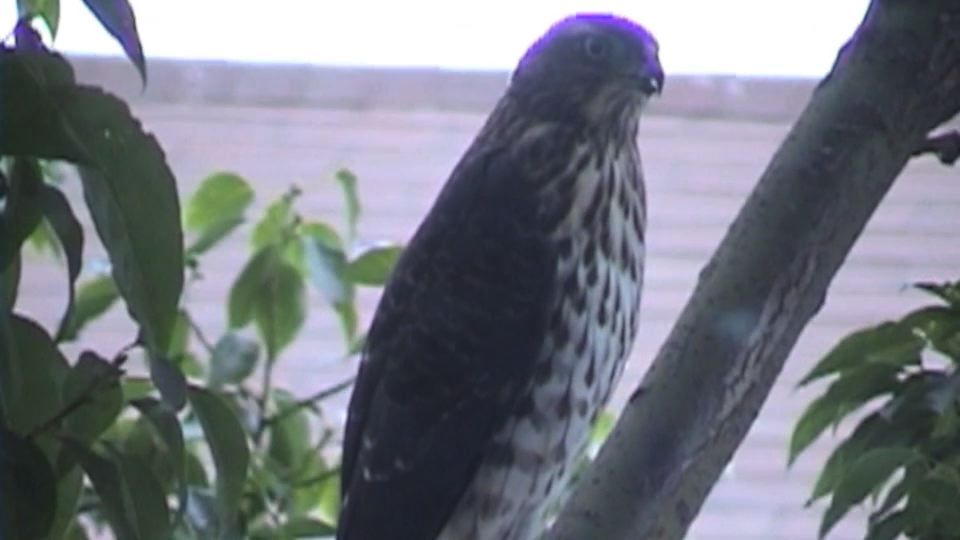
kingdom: Animalia
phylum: Chordata
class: Aves
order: Accipitriformes
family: Accipitridae
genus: Accipiter
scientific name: Accipiter cooperii
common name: Cooper's hawk
